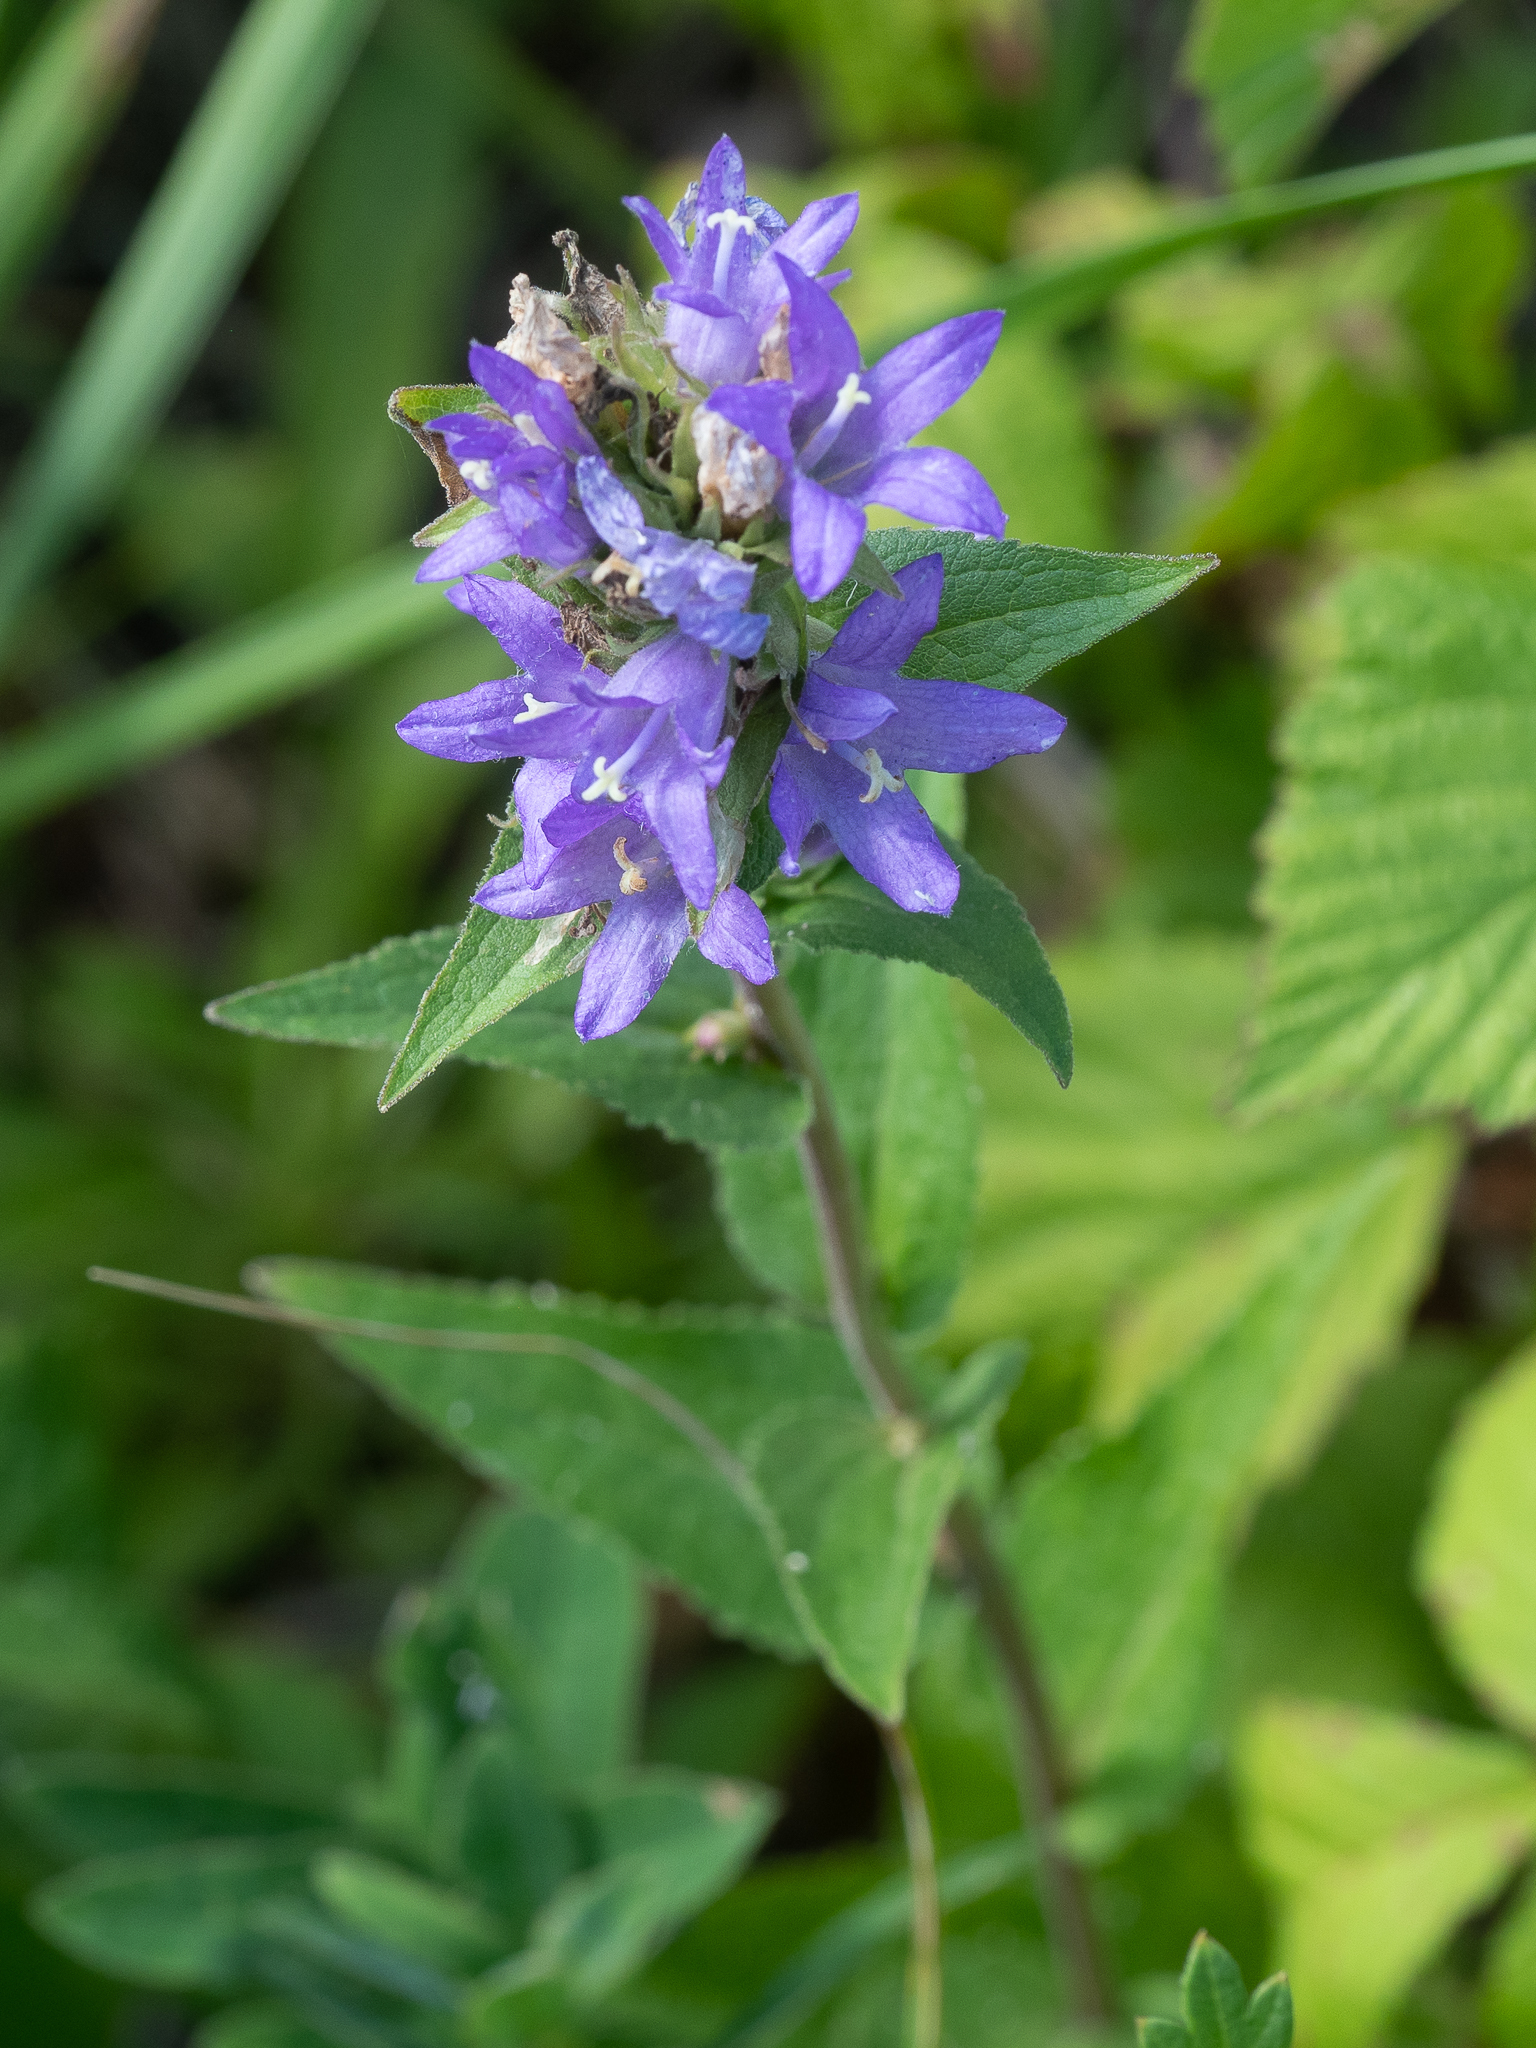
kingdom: Plantae
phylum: Tracheophyta
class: Magnoliopsida
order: Asterales
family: Campanulaceae
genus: Campanula
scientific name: Campanula glomerata
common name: Clustered bellflower
